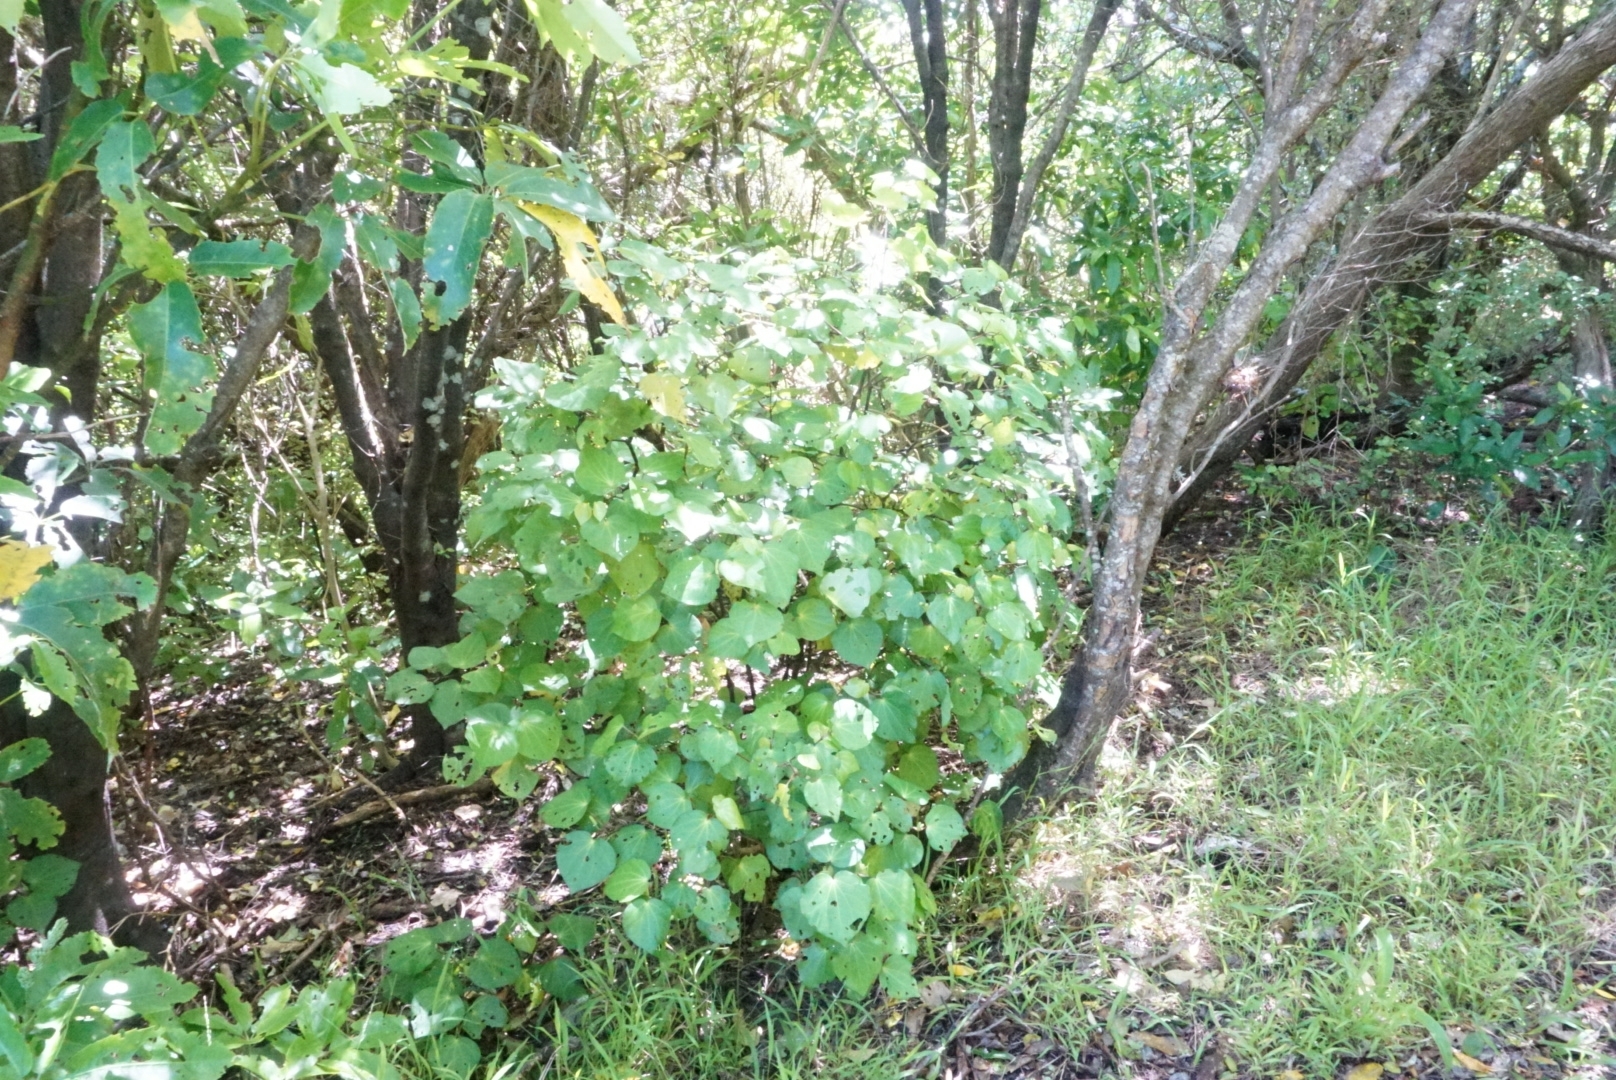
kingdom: Plantae
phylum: Tracheophyta
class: Magnoliopsida
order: Piperales
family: Piperaceae
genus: Macropiper
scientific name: Macropiper excelsum
